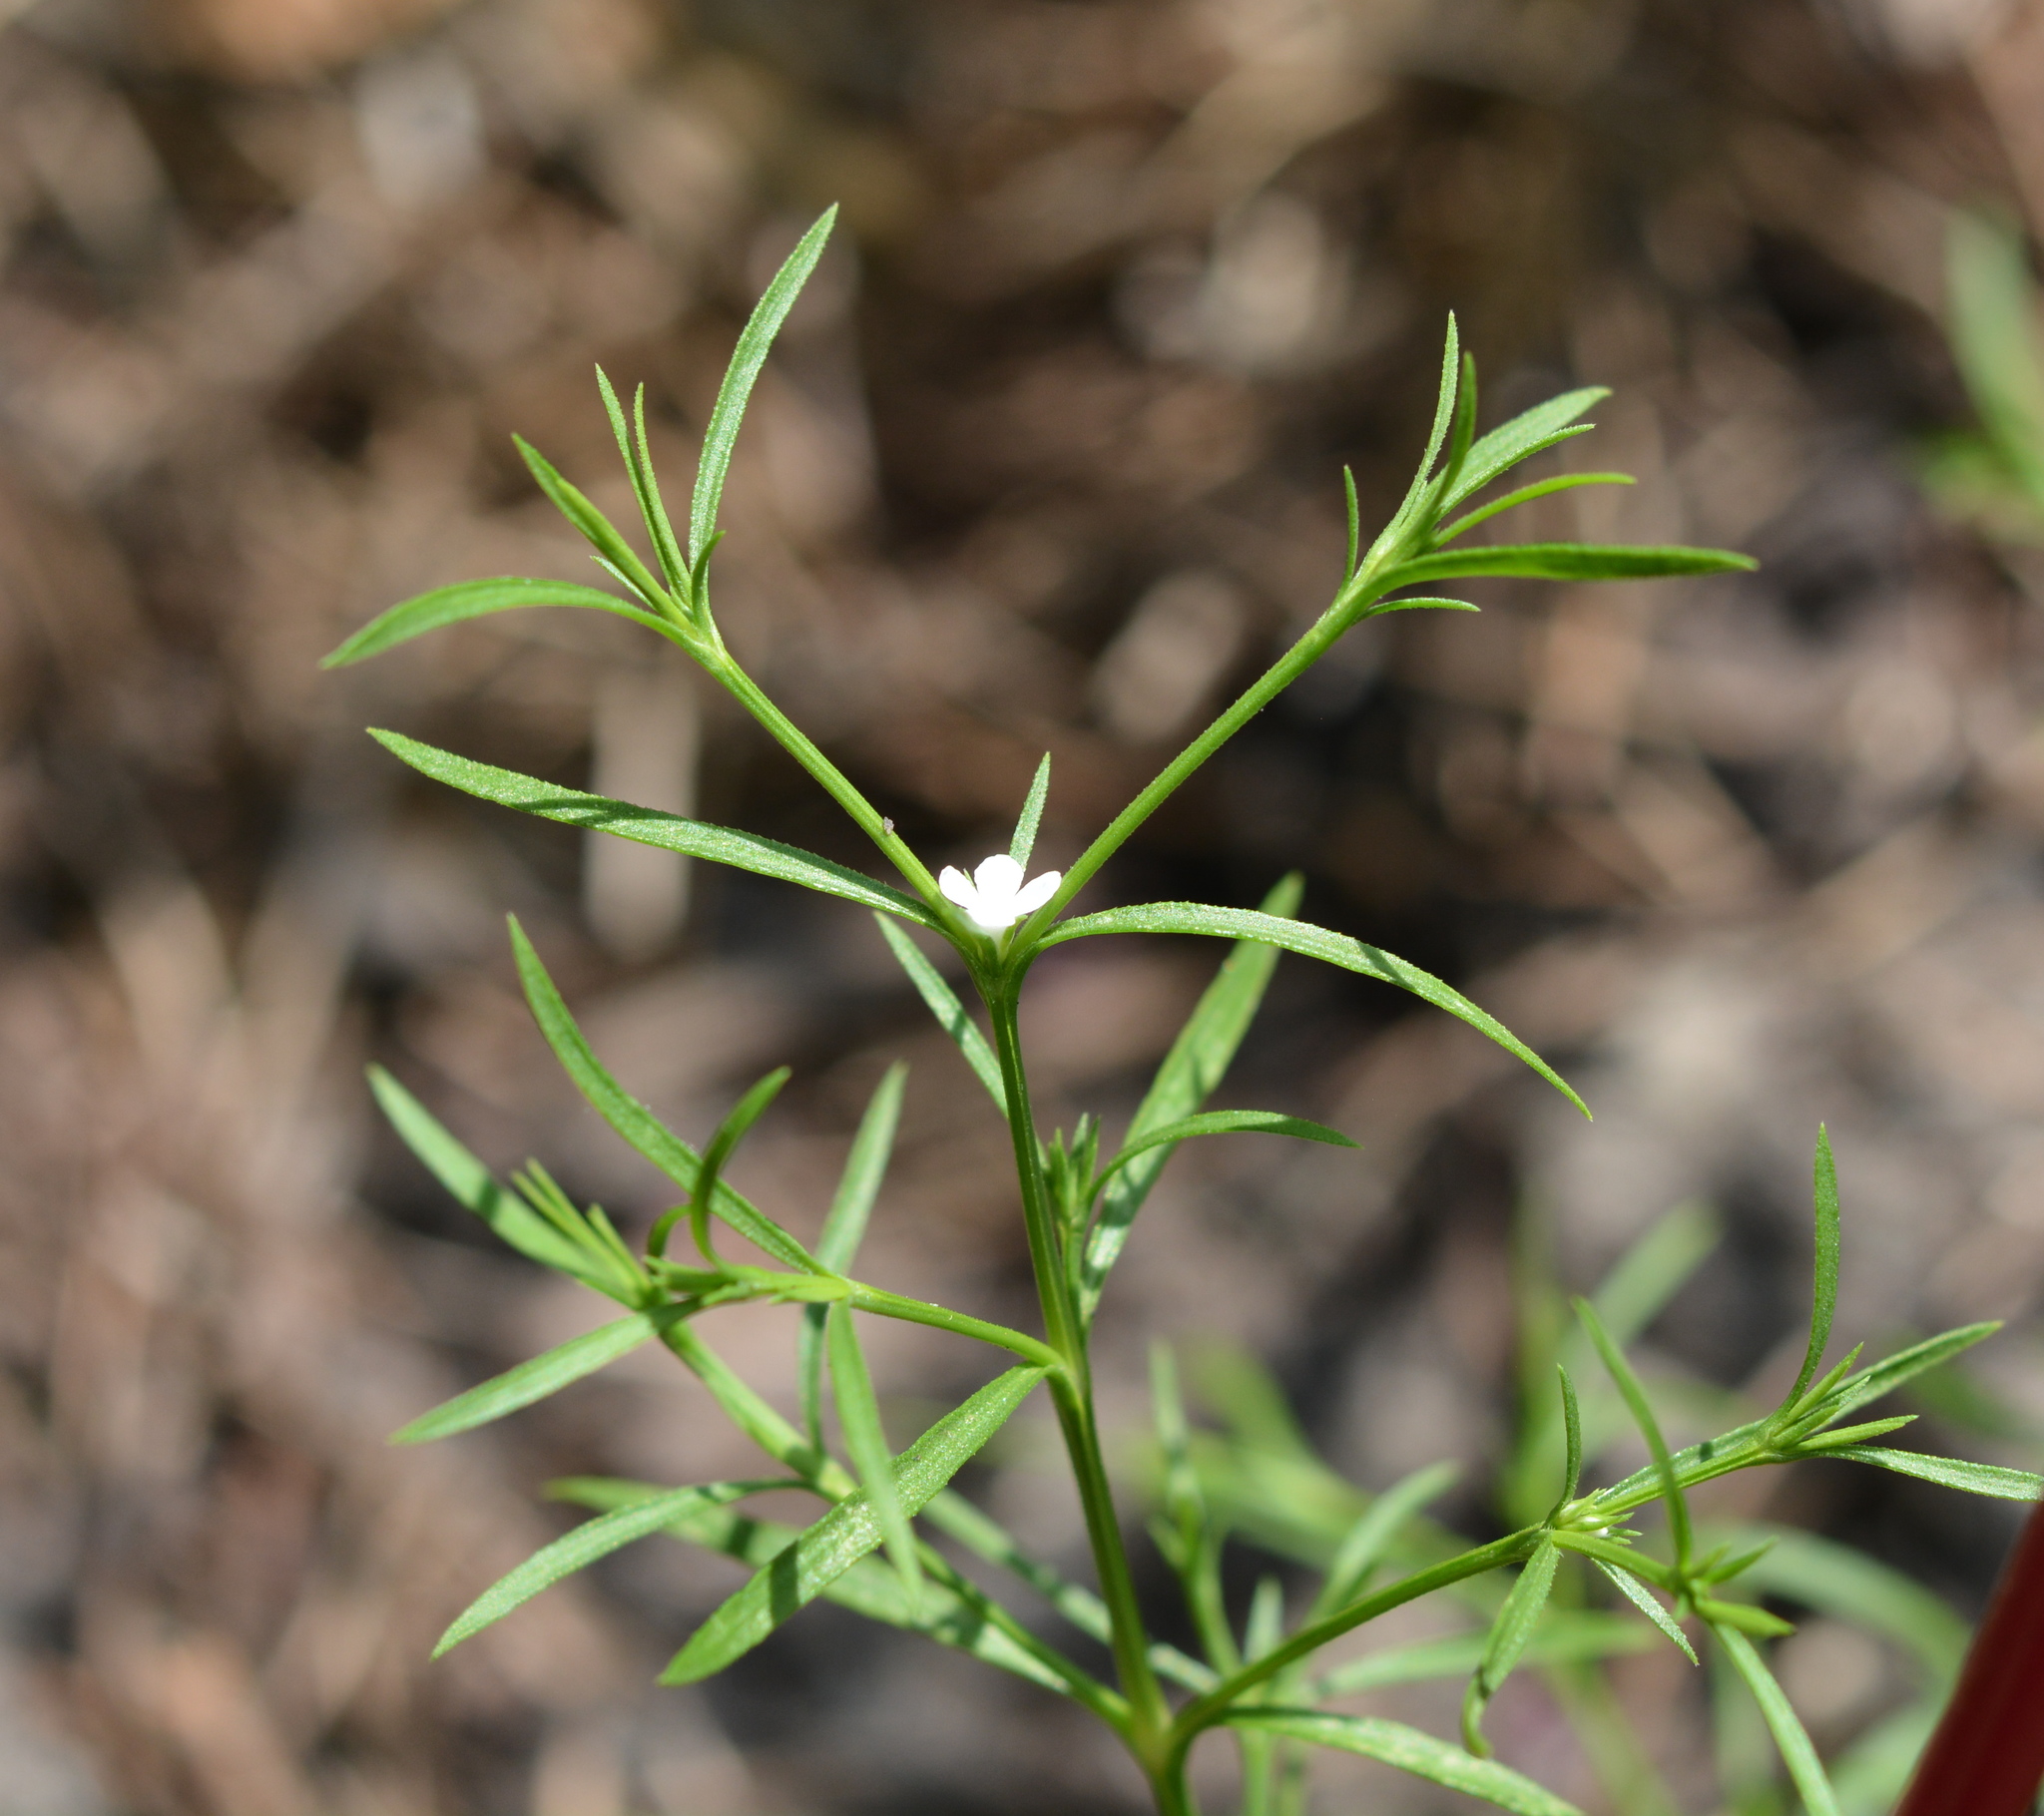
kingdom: Plantae
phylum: Tracheophyta
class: Magnoliopsida
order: Lamiales
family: Tetrachondraceae
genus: Polypremum
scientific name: Polypremum procumbens
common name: Juniper-leaf
